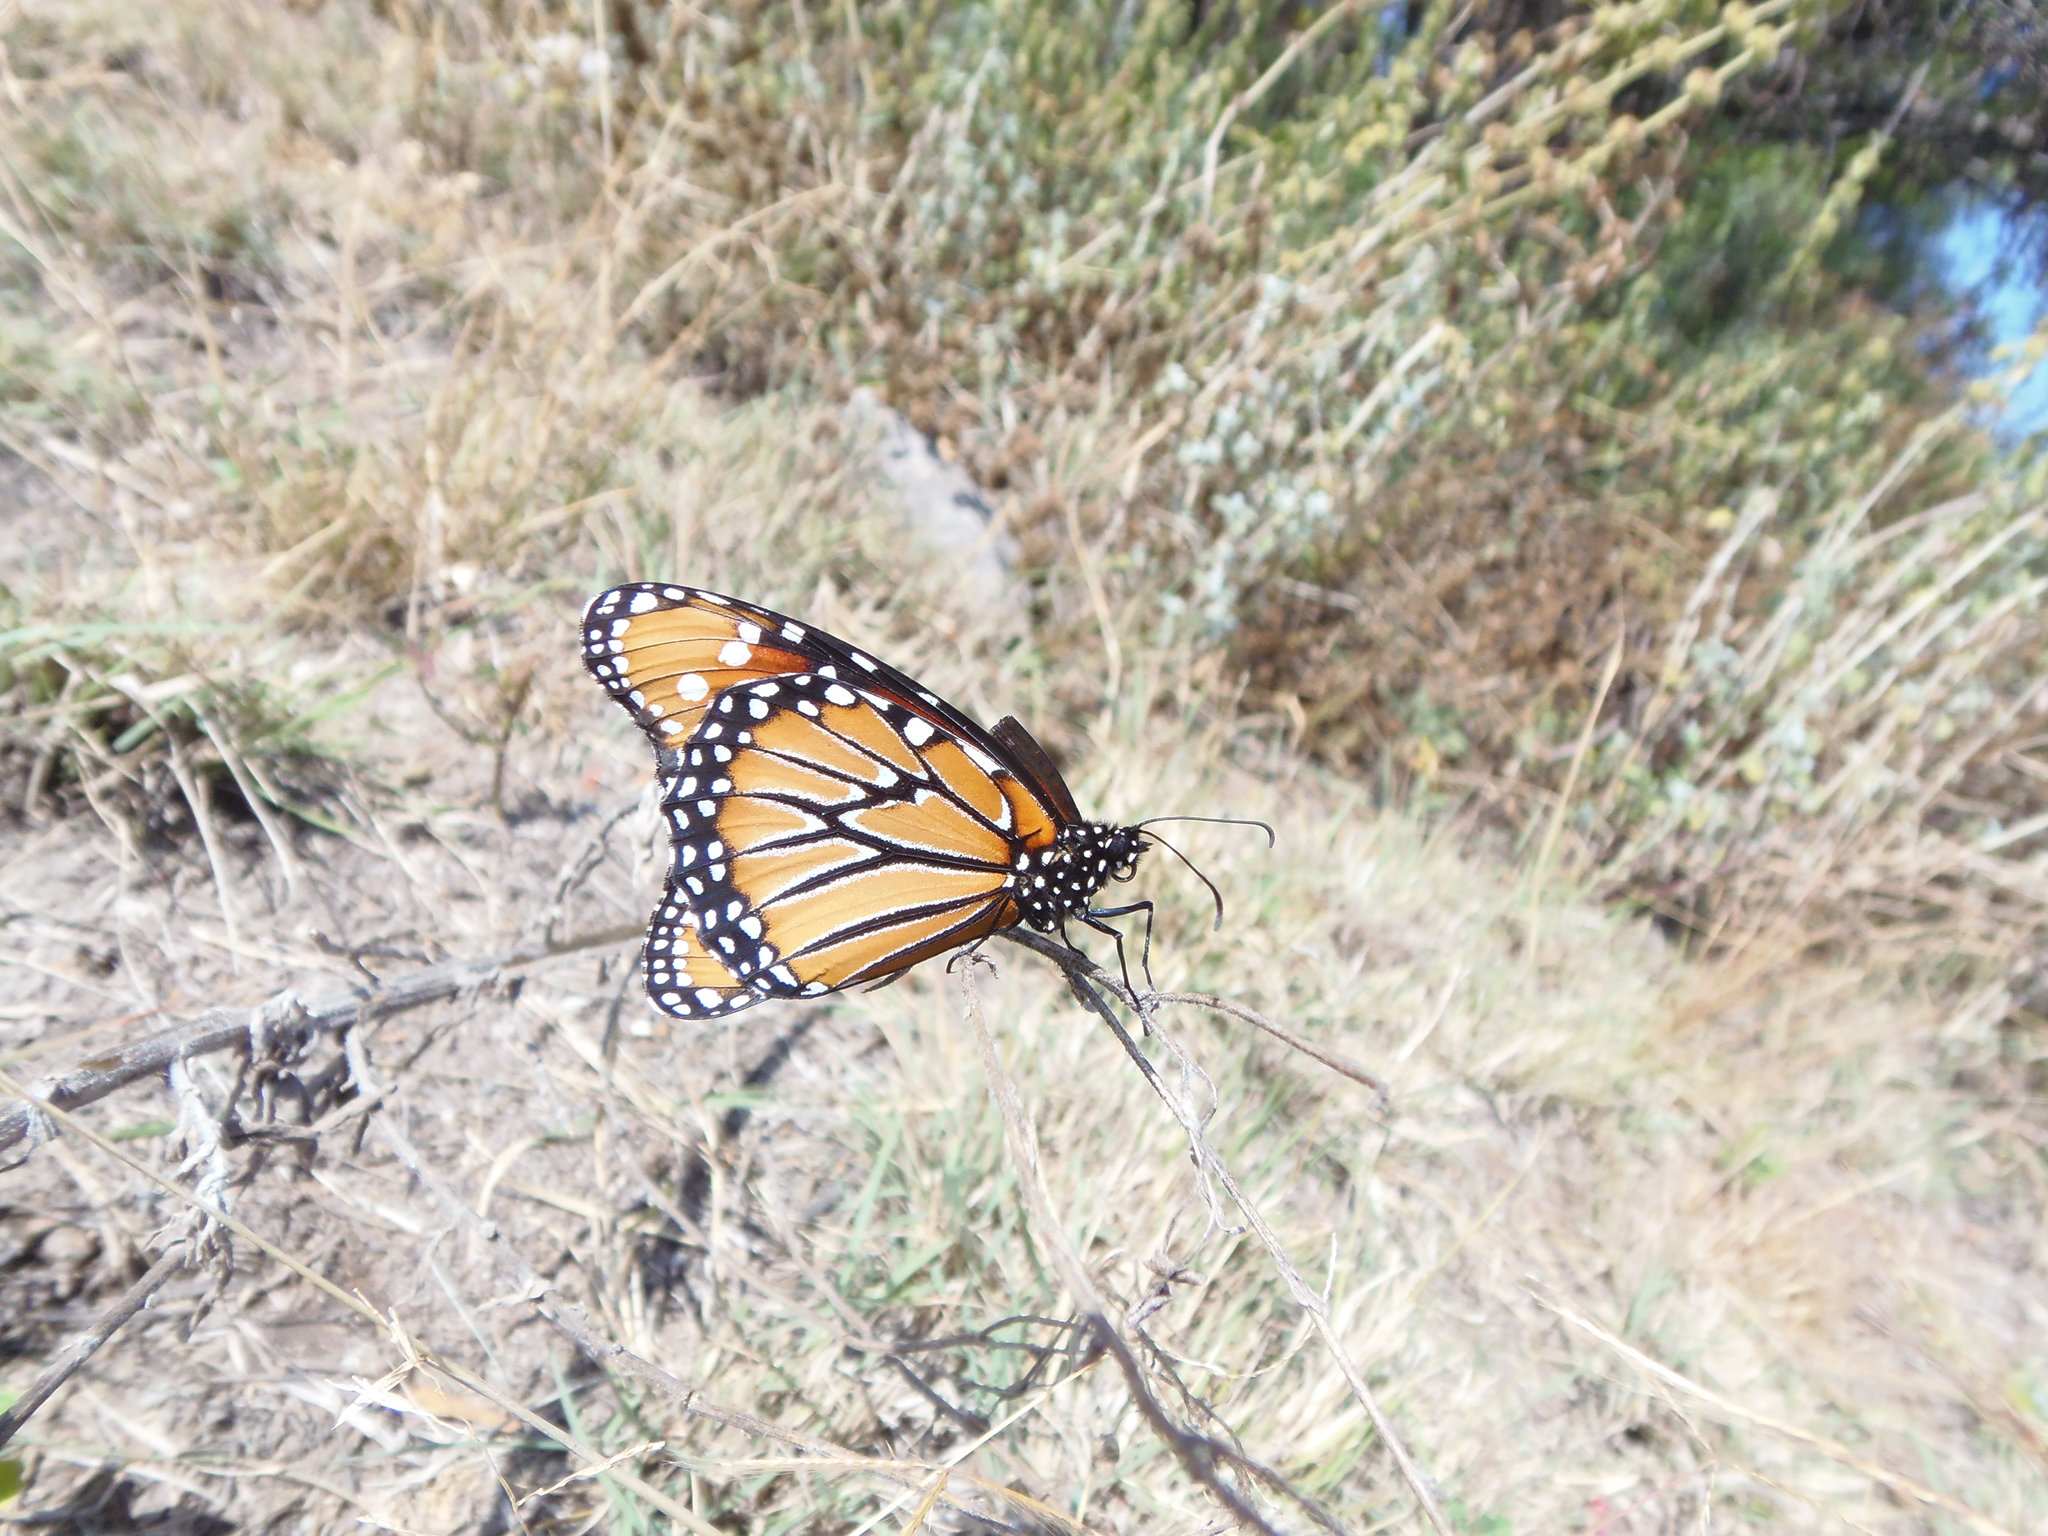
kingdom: Animalia
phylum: Arthropoda
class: Insecta
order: Lepidoptera
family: Nymphalidae
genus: Danaus
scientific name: Danaus gilippus
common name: Queen
